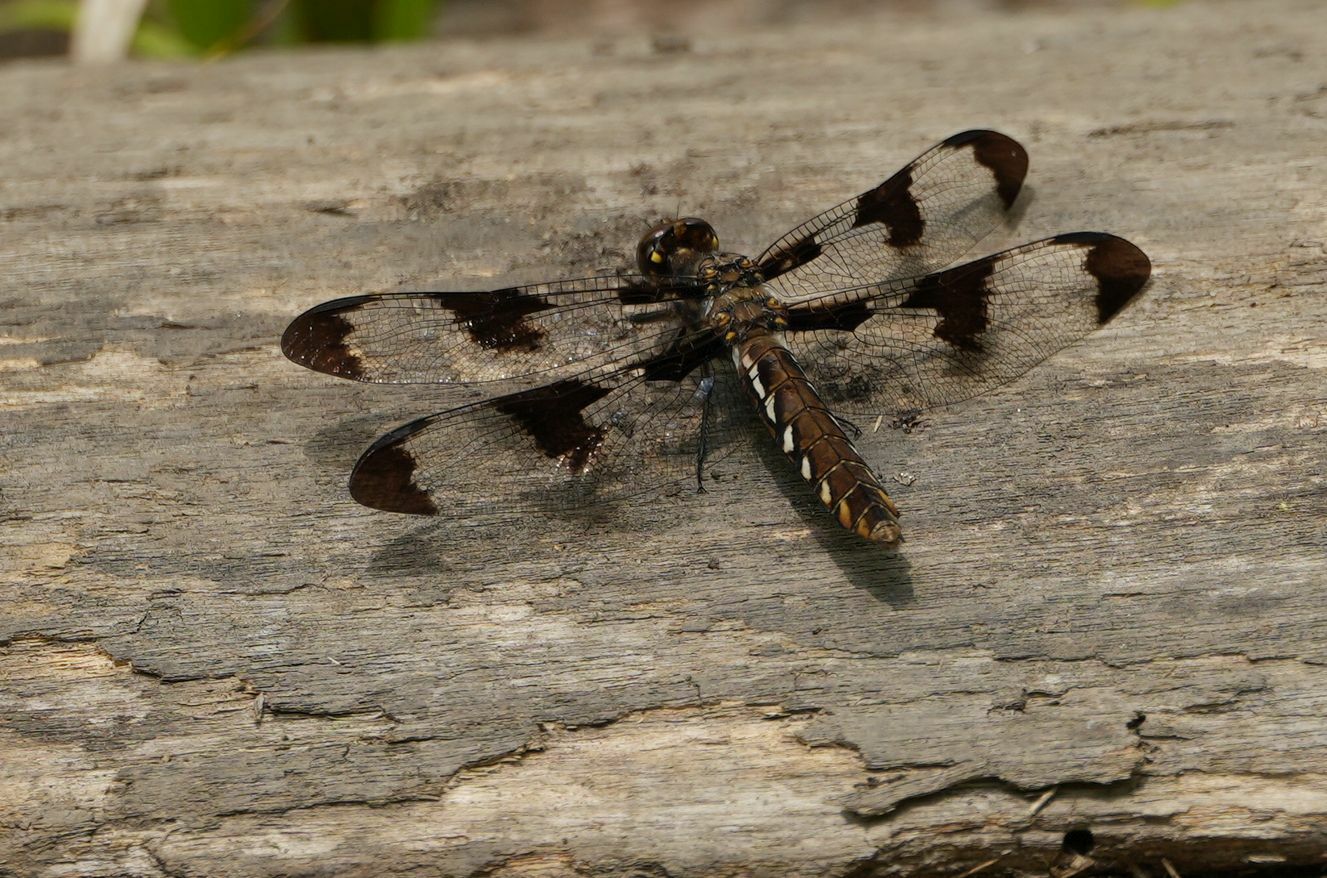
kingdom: Animalia
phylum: Arthropoda
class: Insecta
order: Odonata
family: Libellulidae
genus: Plathemis
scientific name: Plathemis lydia
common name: Common whitetail
